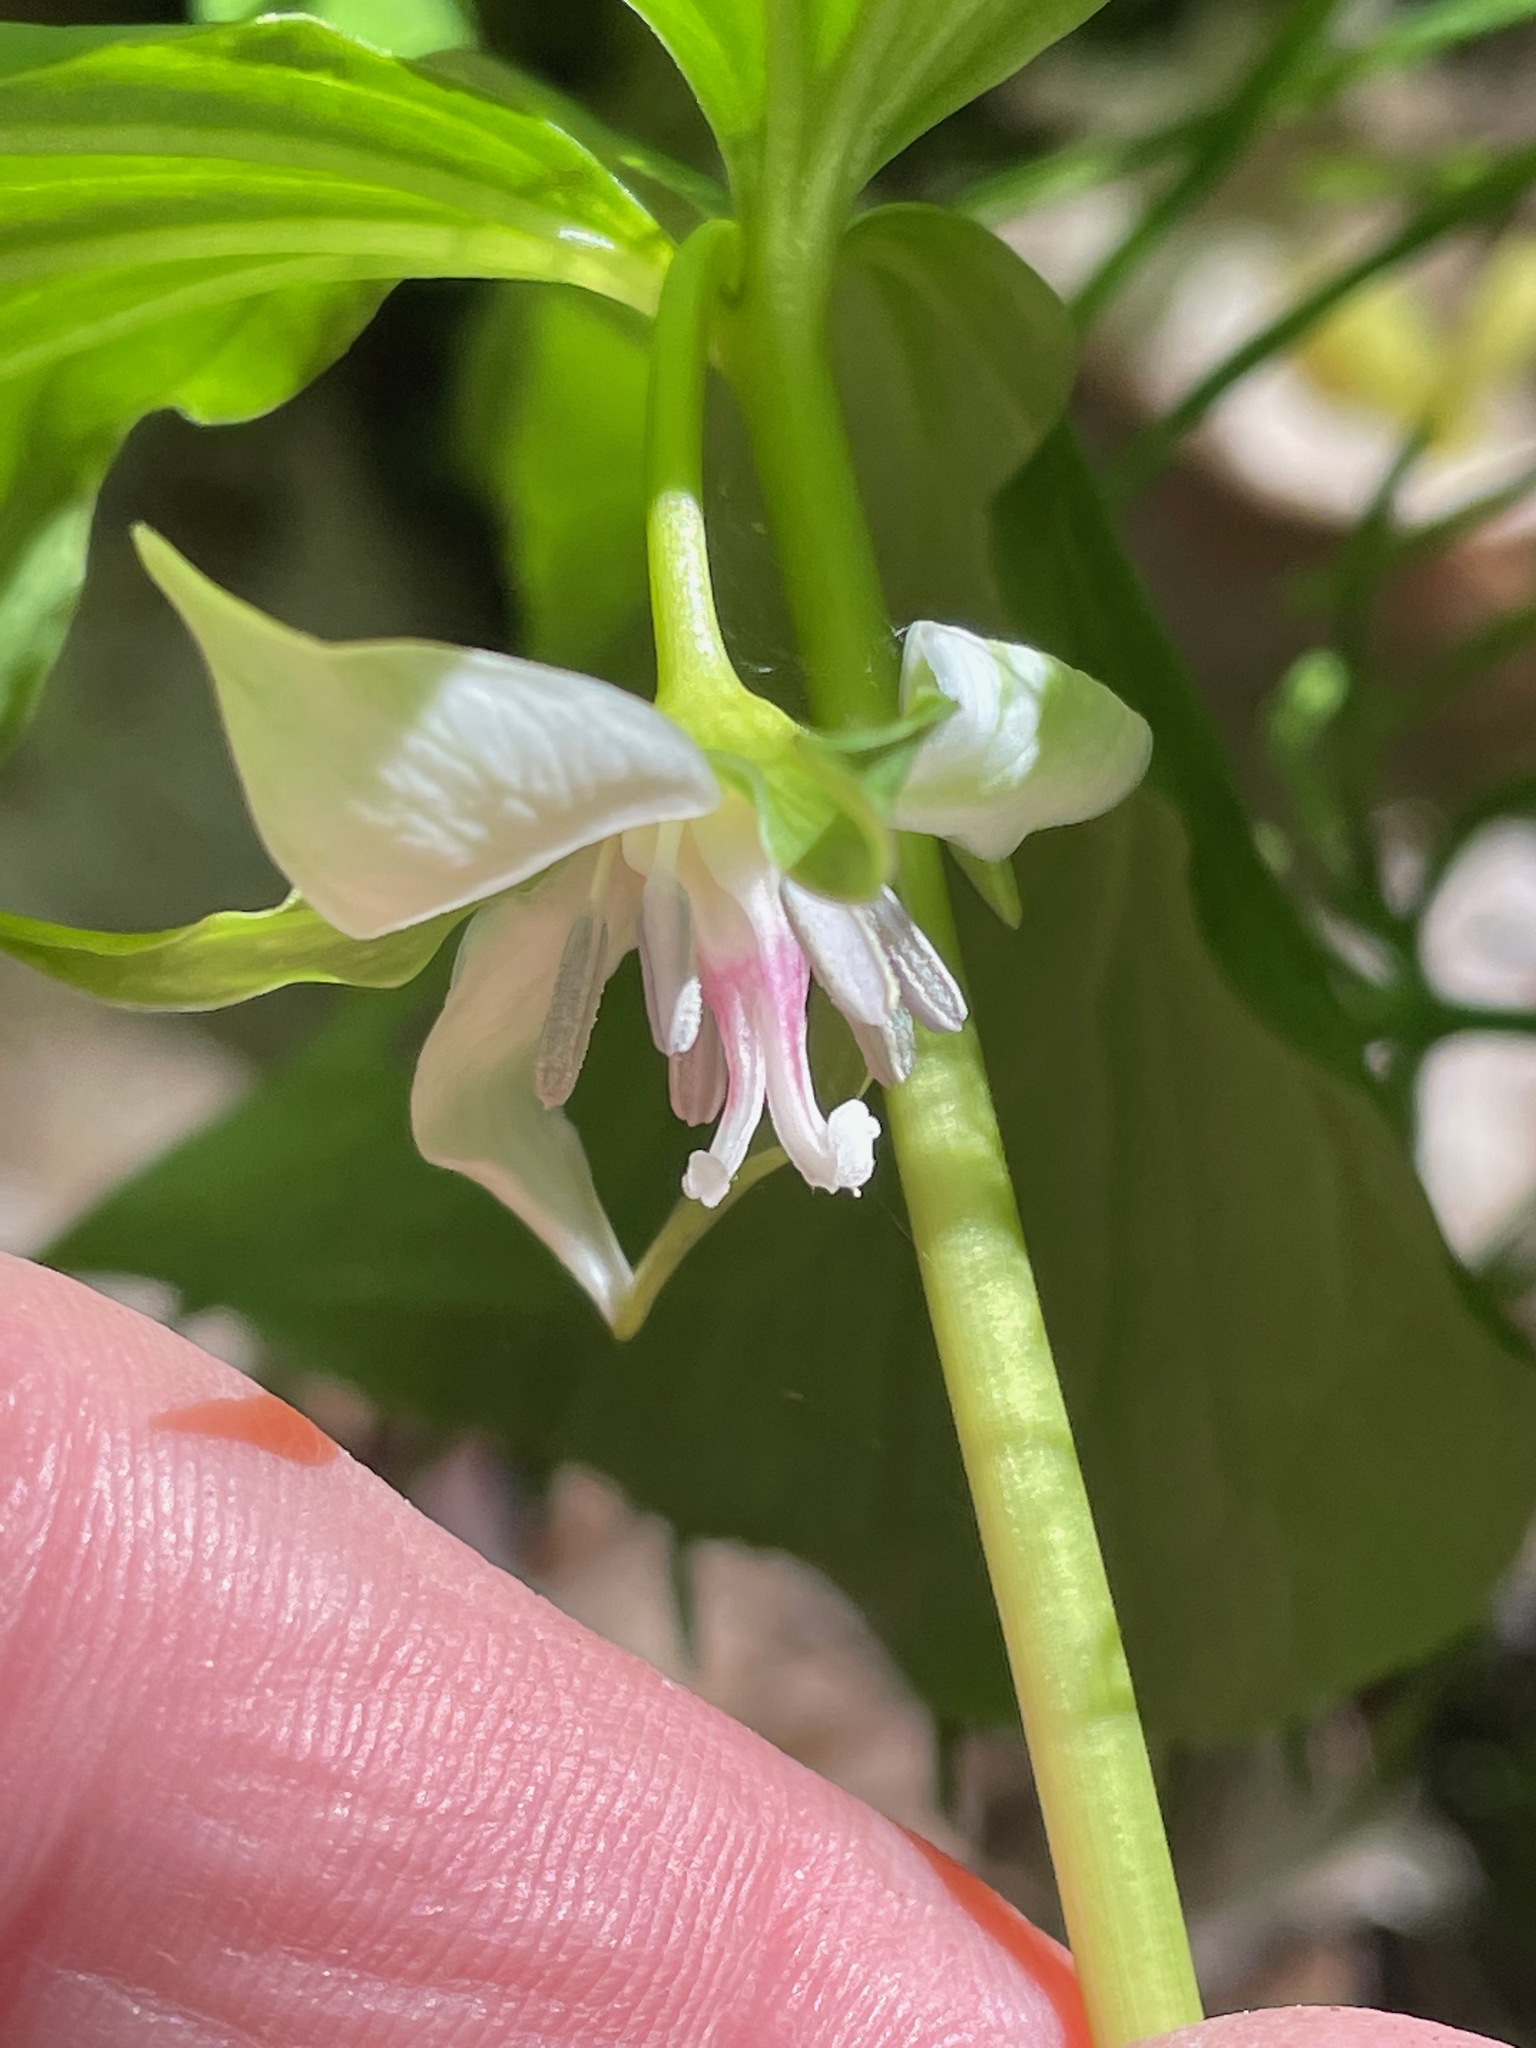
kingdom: Plantae
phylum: Tracheophyta
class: Liliopsida
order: Liliales
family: Melanthiaceae
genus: Trillium
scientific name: Trillium cernuum
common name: Nodding trillium
